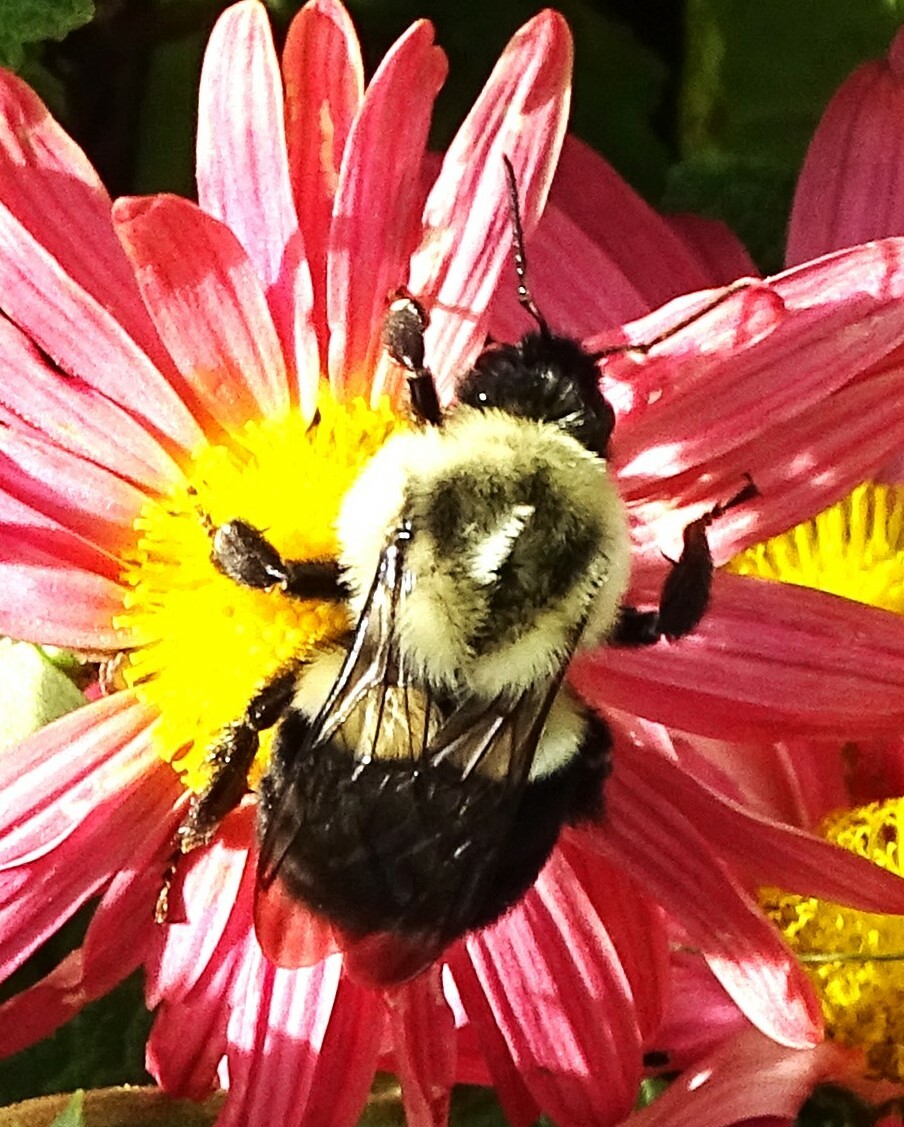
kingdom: Animalia
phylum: Arthropoda
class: Insecta
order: Hymenoptera
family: Apidae
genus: Bombus
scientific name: Bombus impatiens
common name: Common eastern bumble bee
